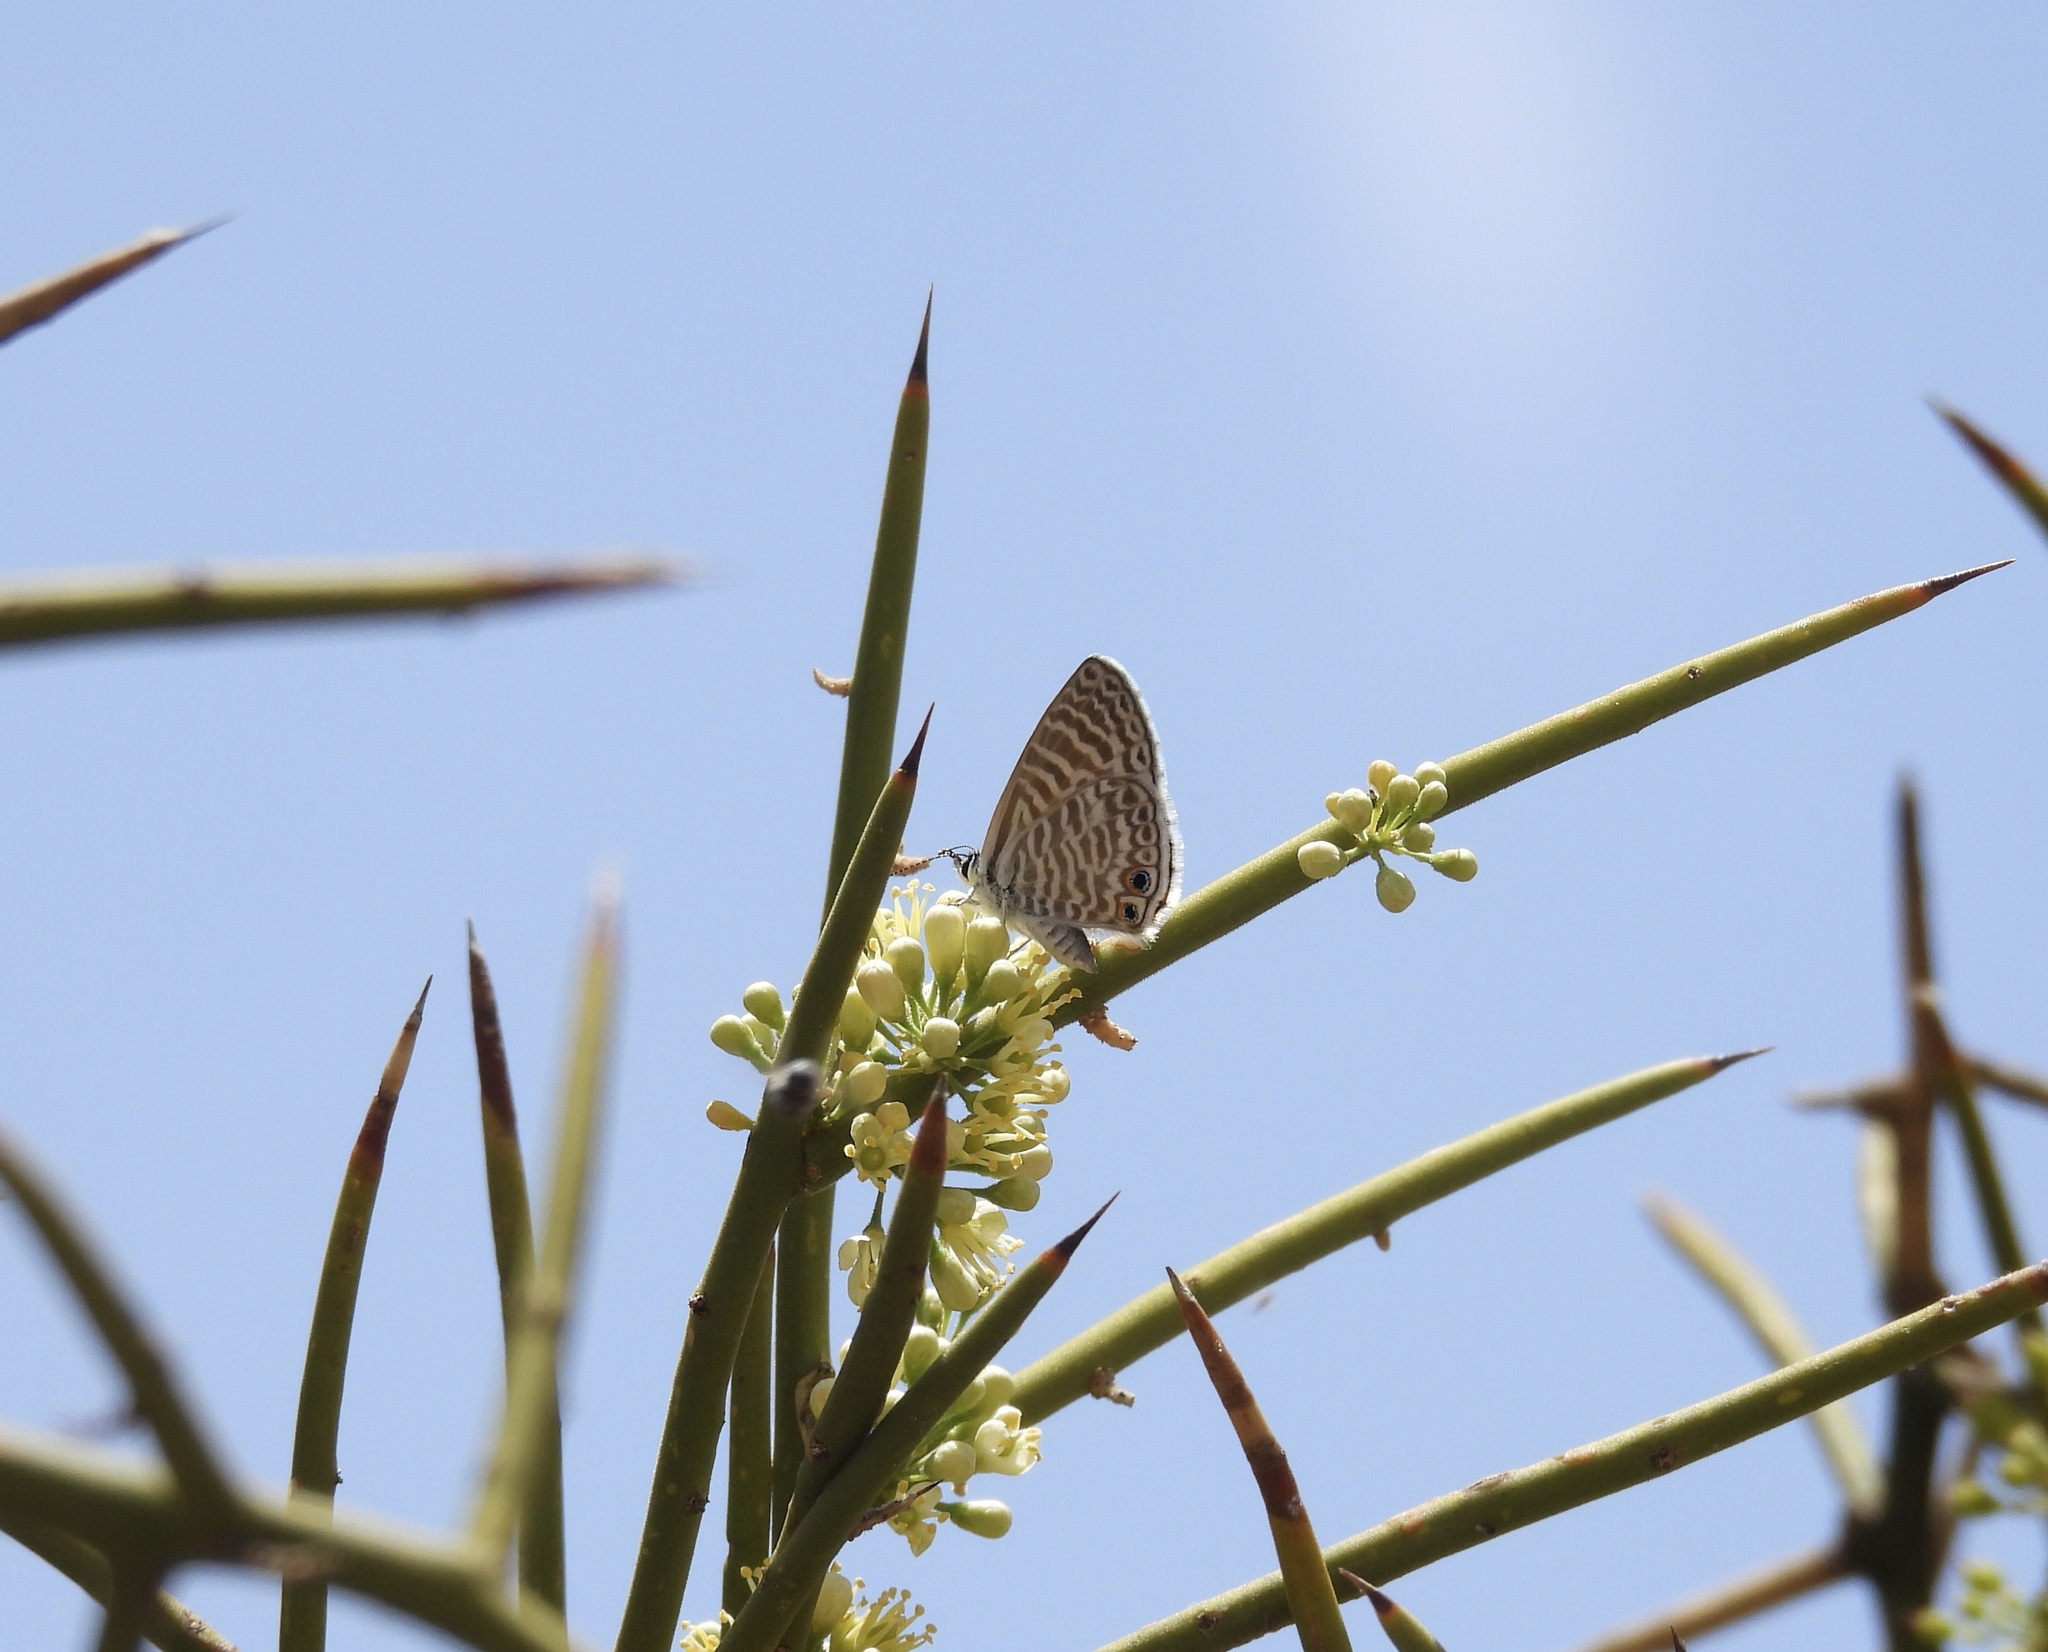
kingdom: Animalia
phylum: Arthropoda
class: Insecta
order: Lepidoptera
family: Lycaenidae
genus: Leptotes
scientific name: Leptotes marina
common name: Marine blue
